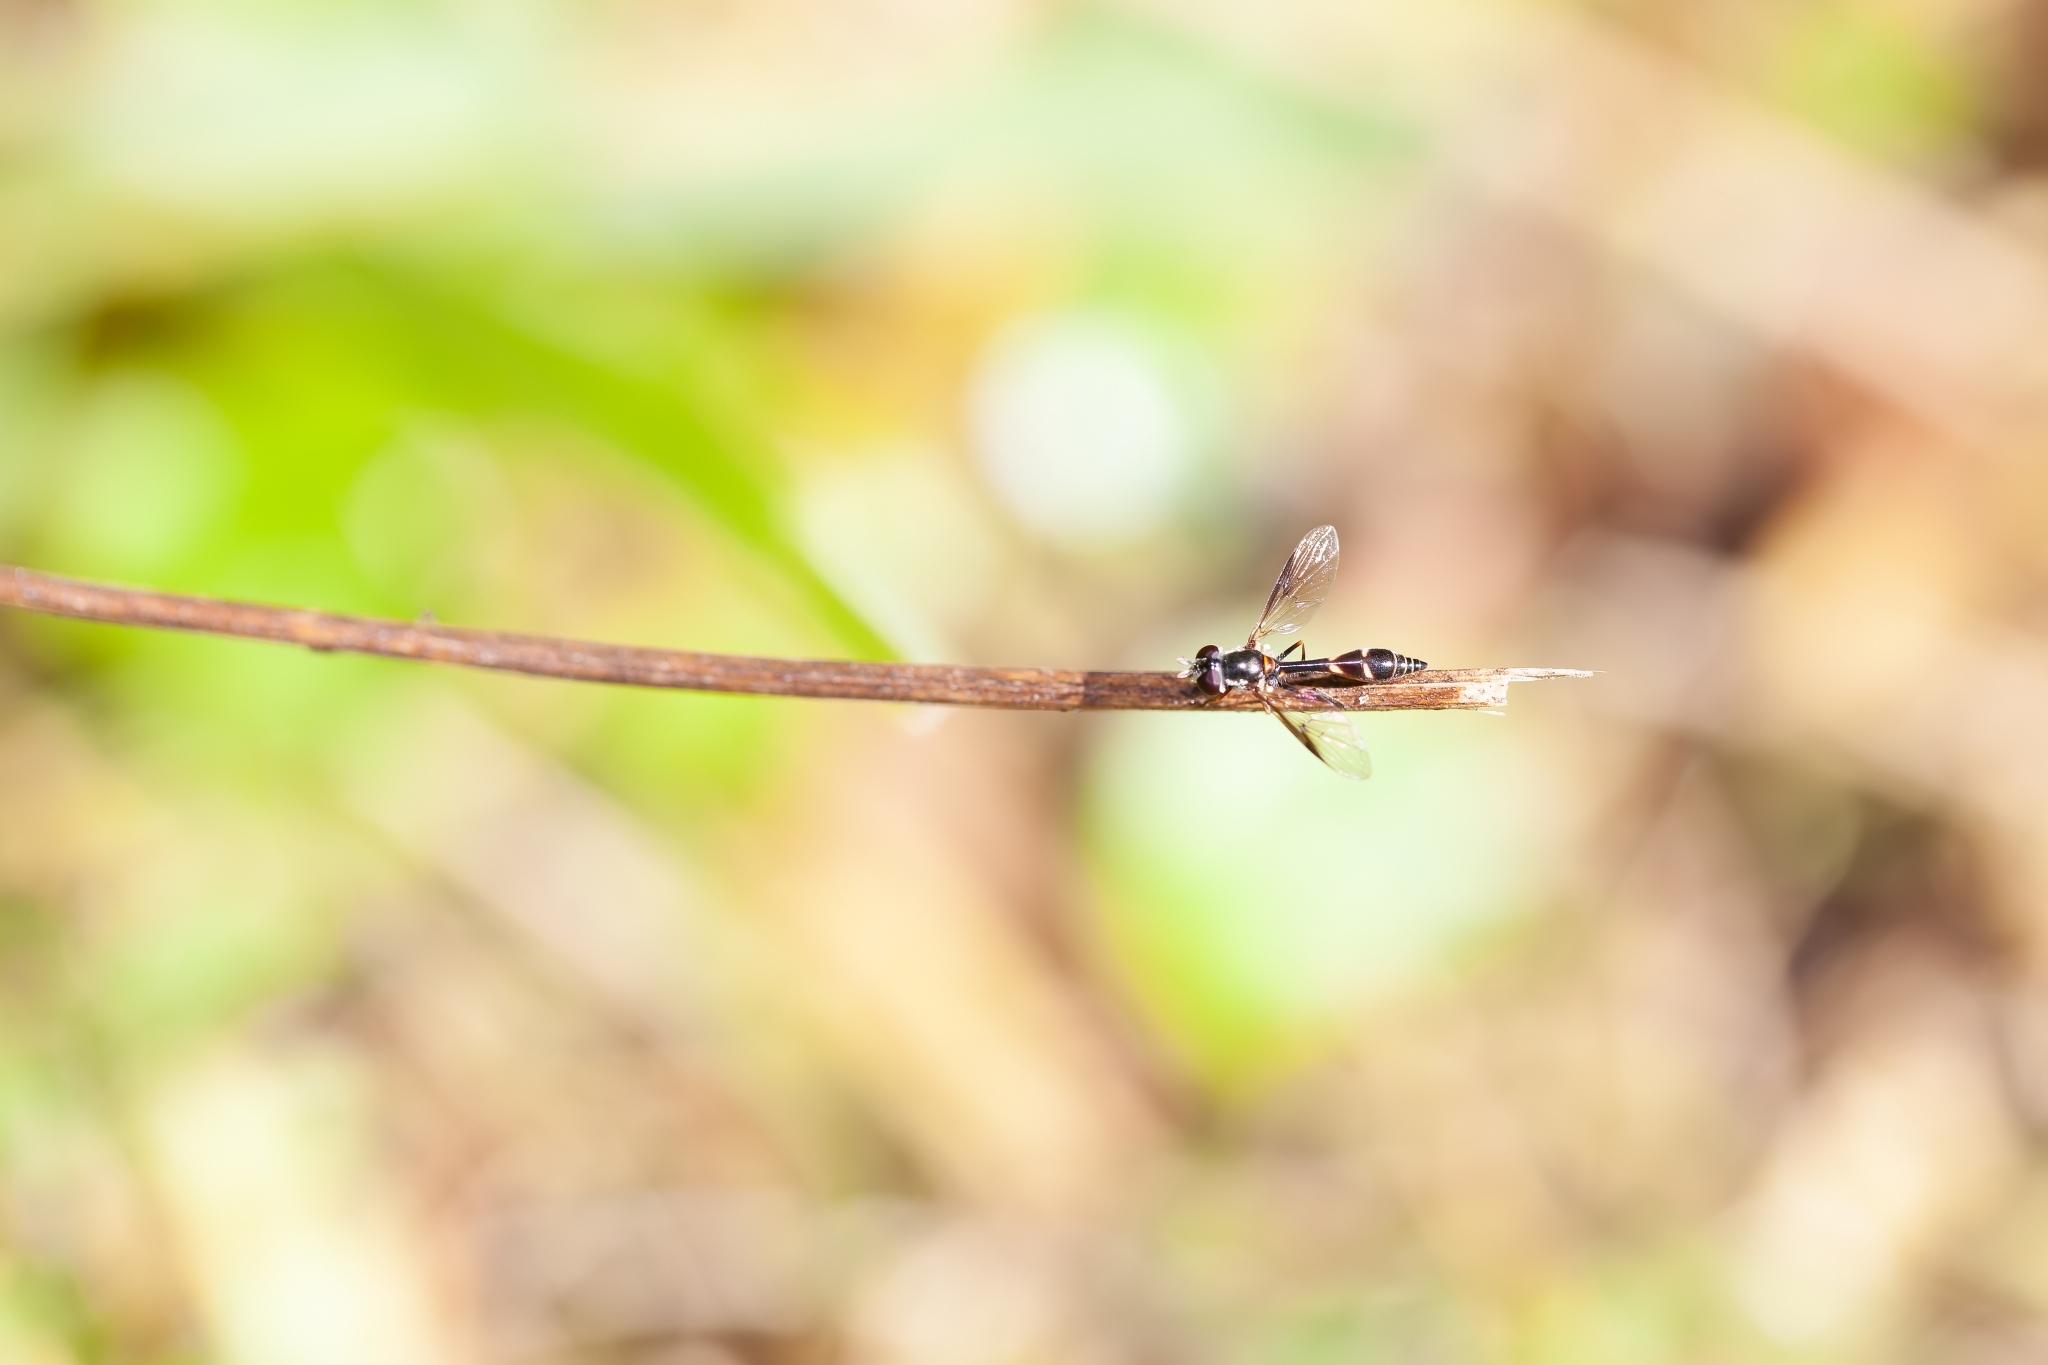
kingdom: Animalia
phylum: Arthropoda
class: Insecta
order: Diptera
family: Syrphidae
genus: Dioprosopa
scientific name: Dioprosopa clavatus
